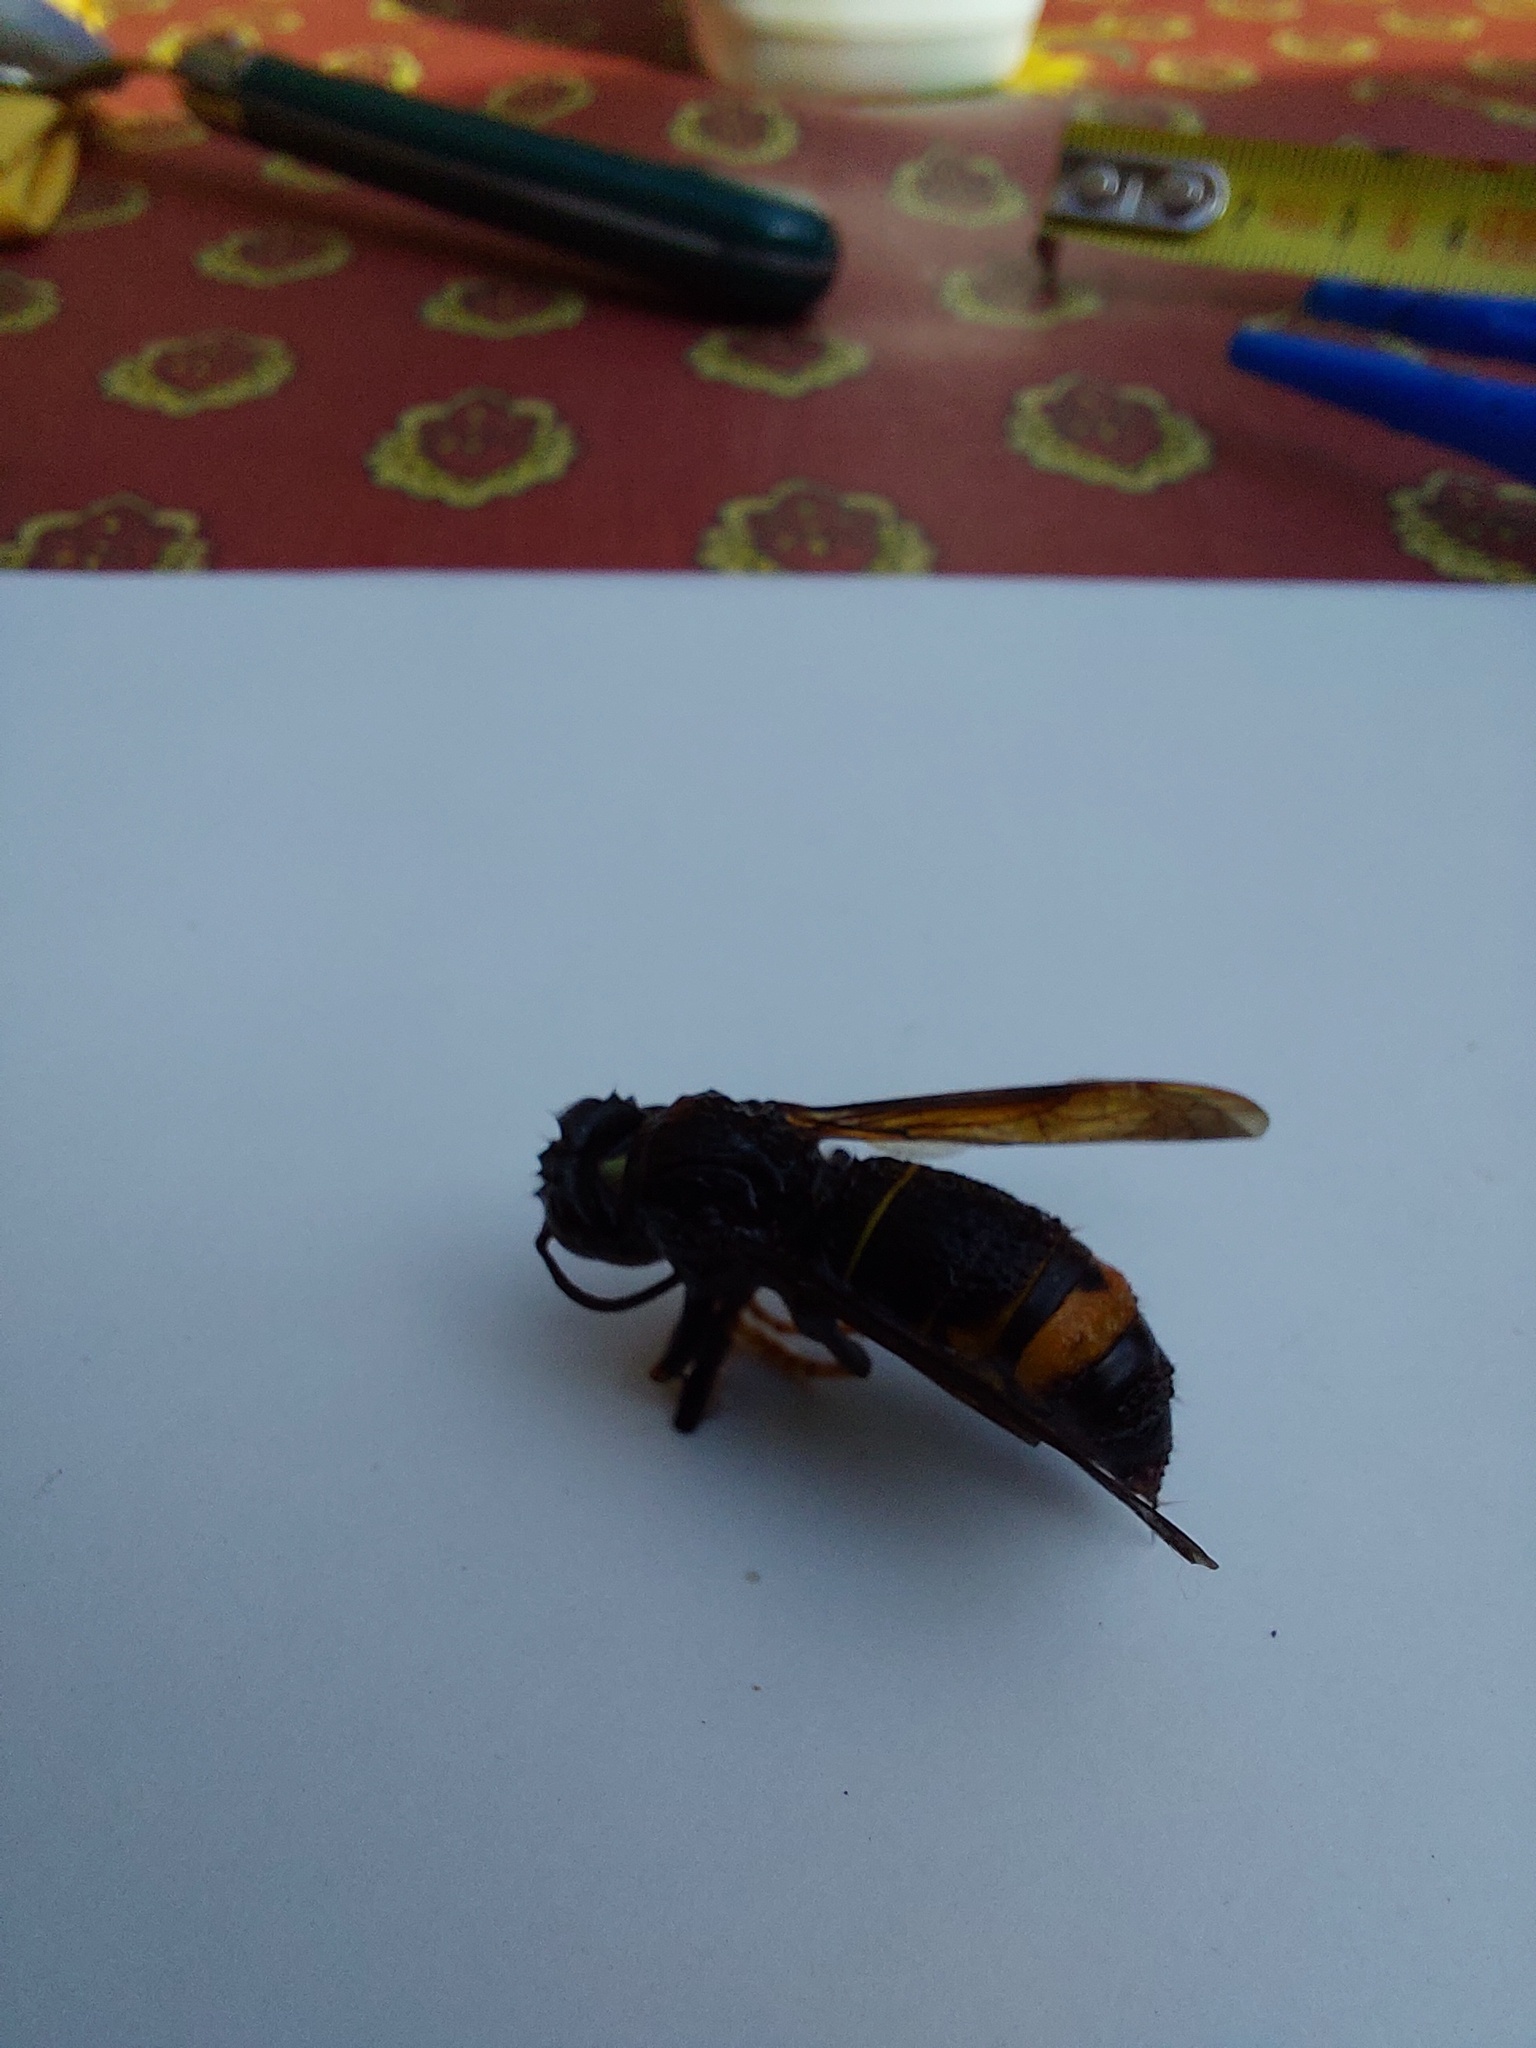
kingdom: Animalia
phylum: Arthropoda
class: Insecta
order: Hymenoptera
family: Vespidae
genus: Vespa
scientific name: Vespa velutina
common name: Asian hornet
